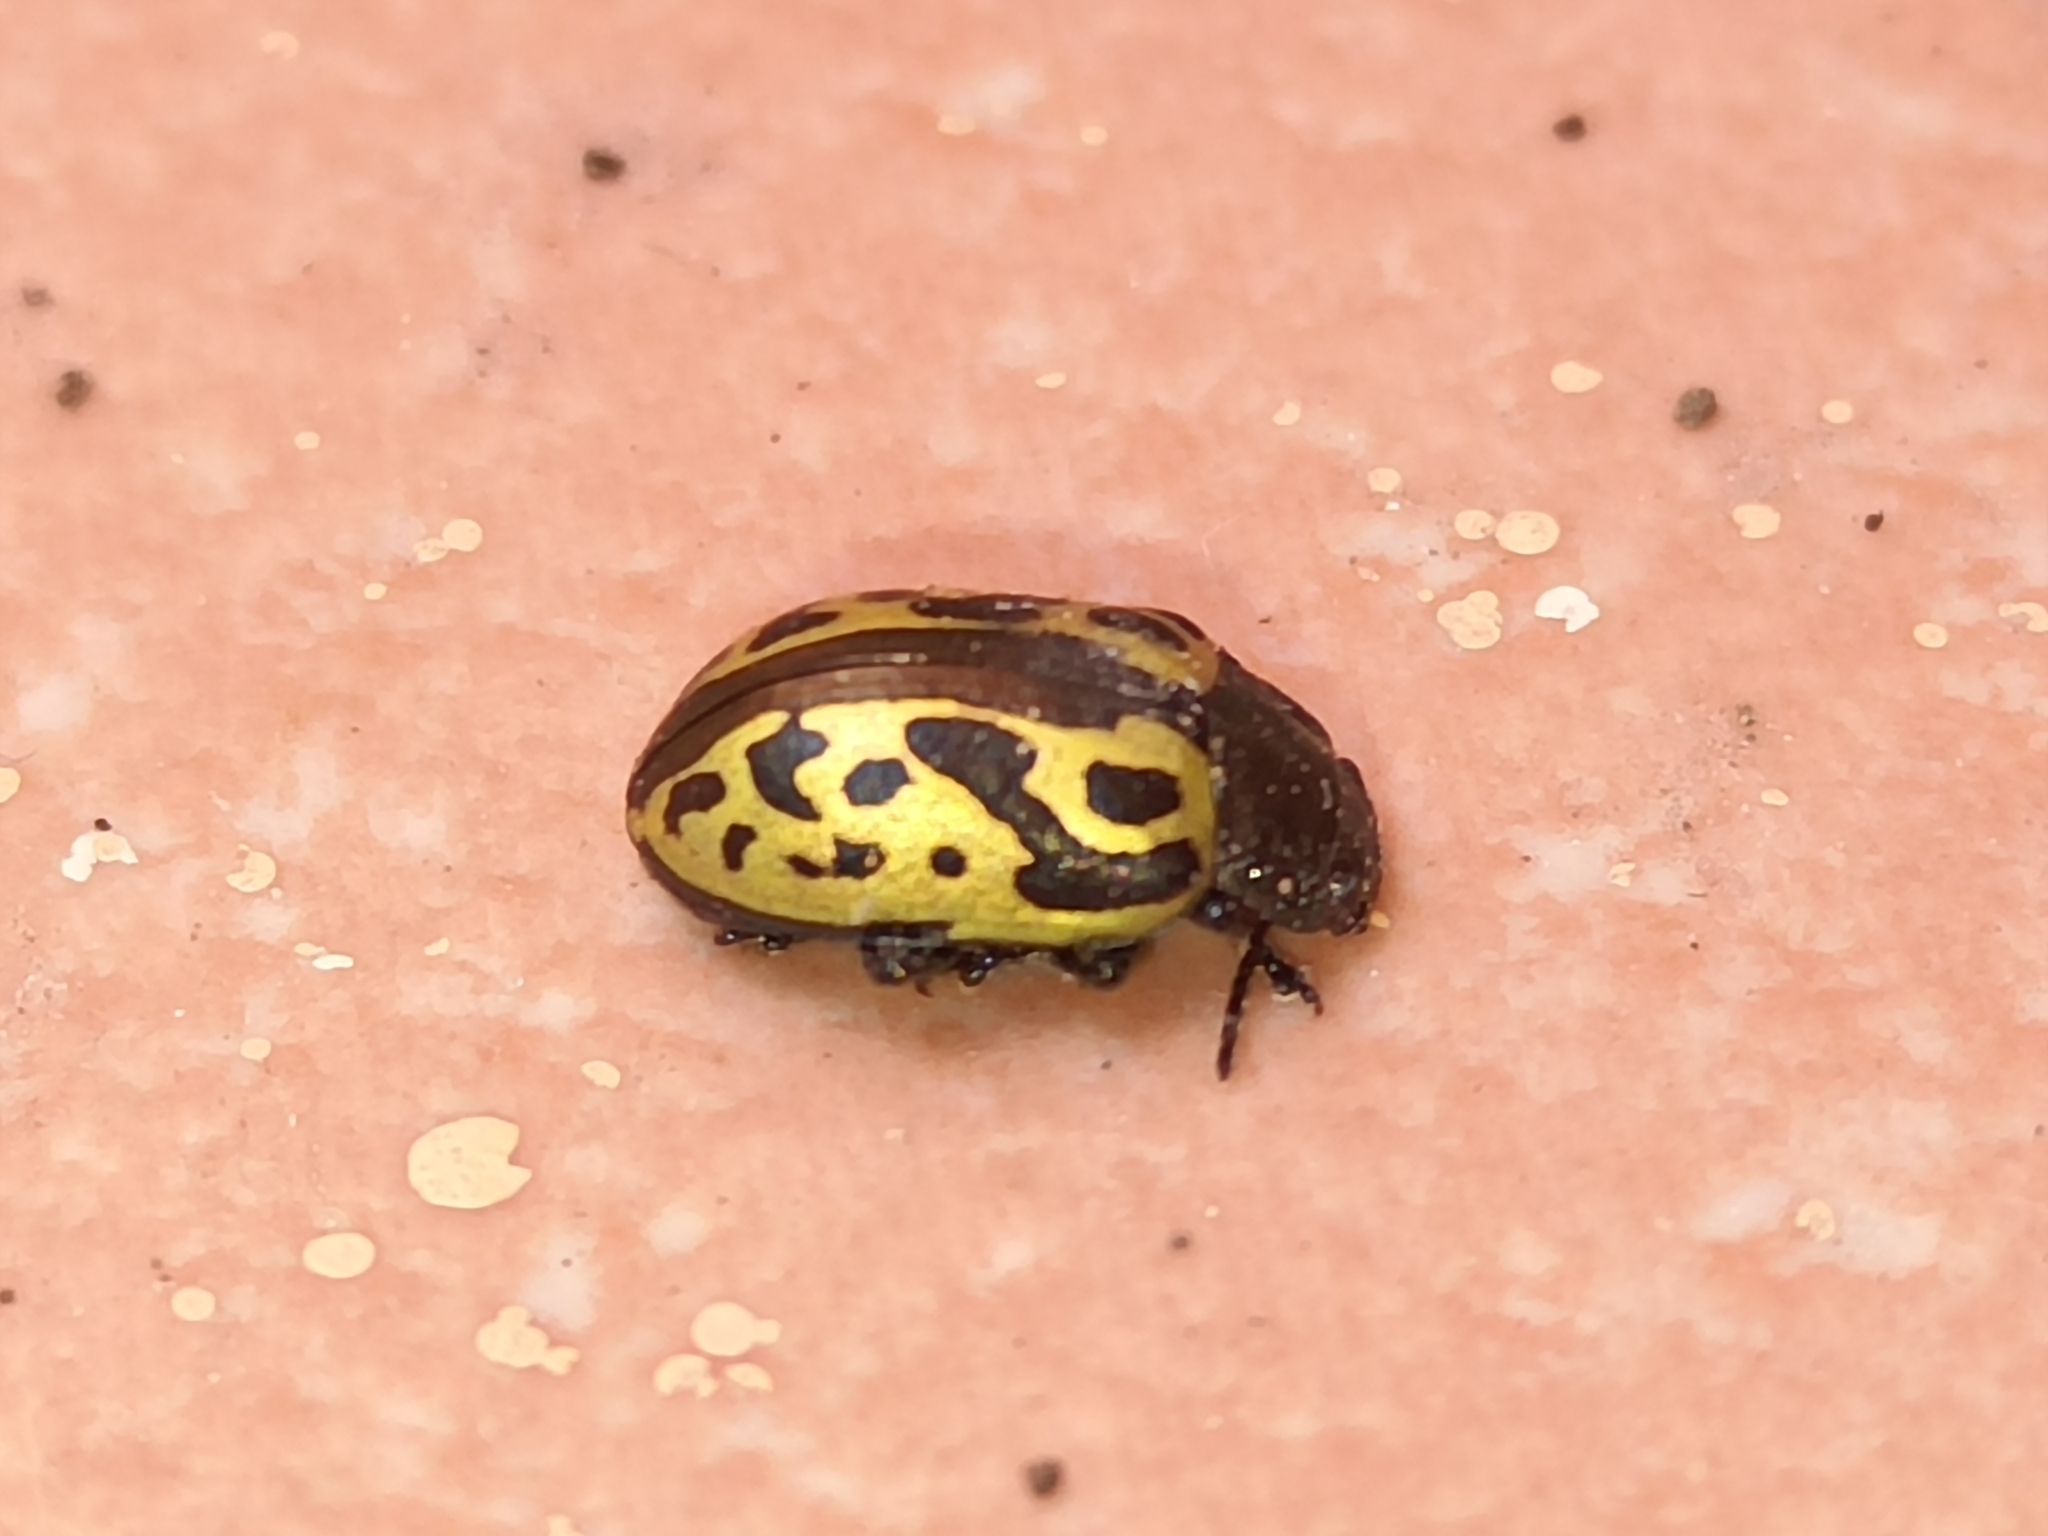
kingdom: Animalia
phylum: Arthropoda
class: Insecta
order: Coleoptera
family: Chrysomelidae
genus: Calligrapha
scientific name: Calligrapha
